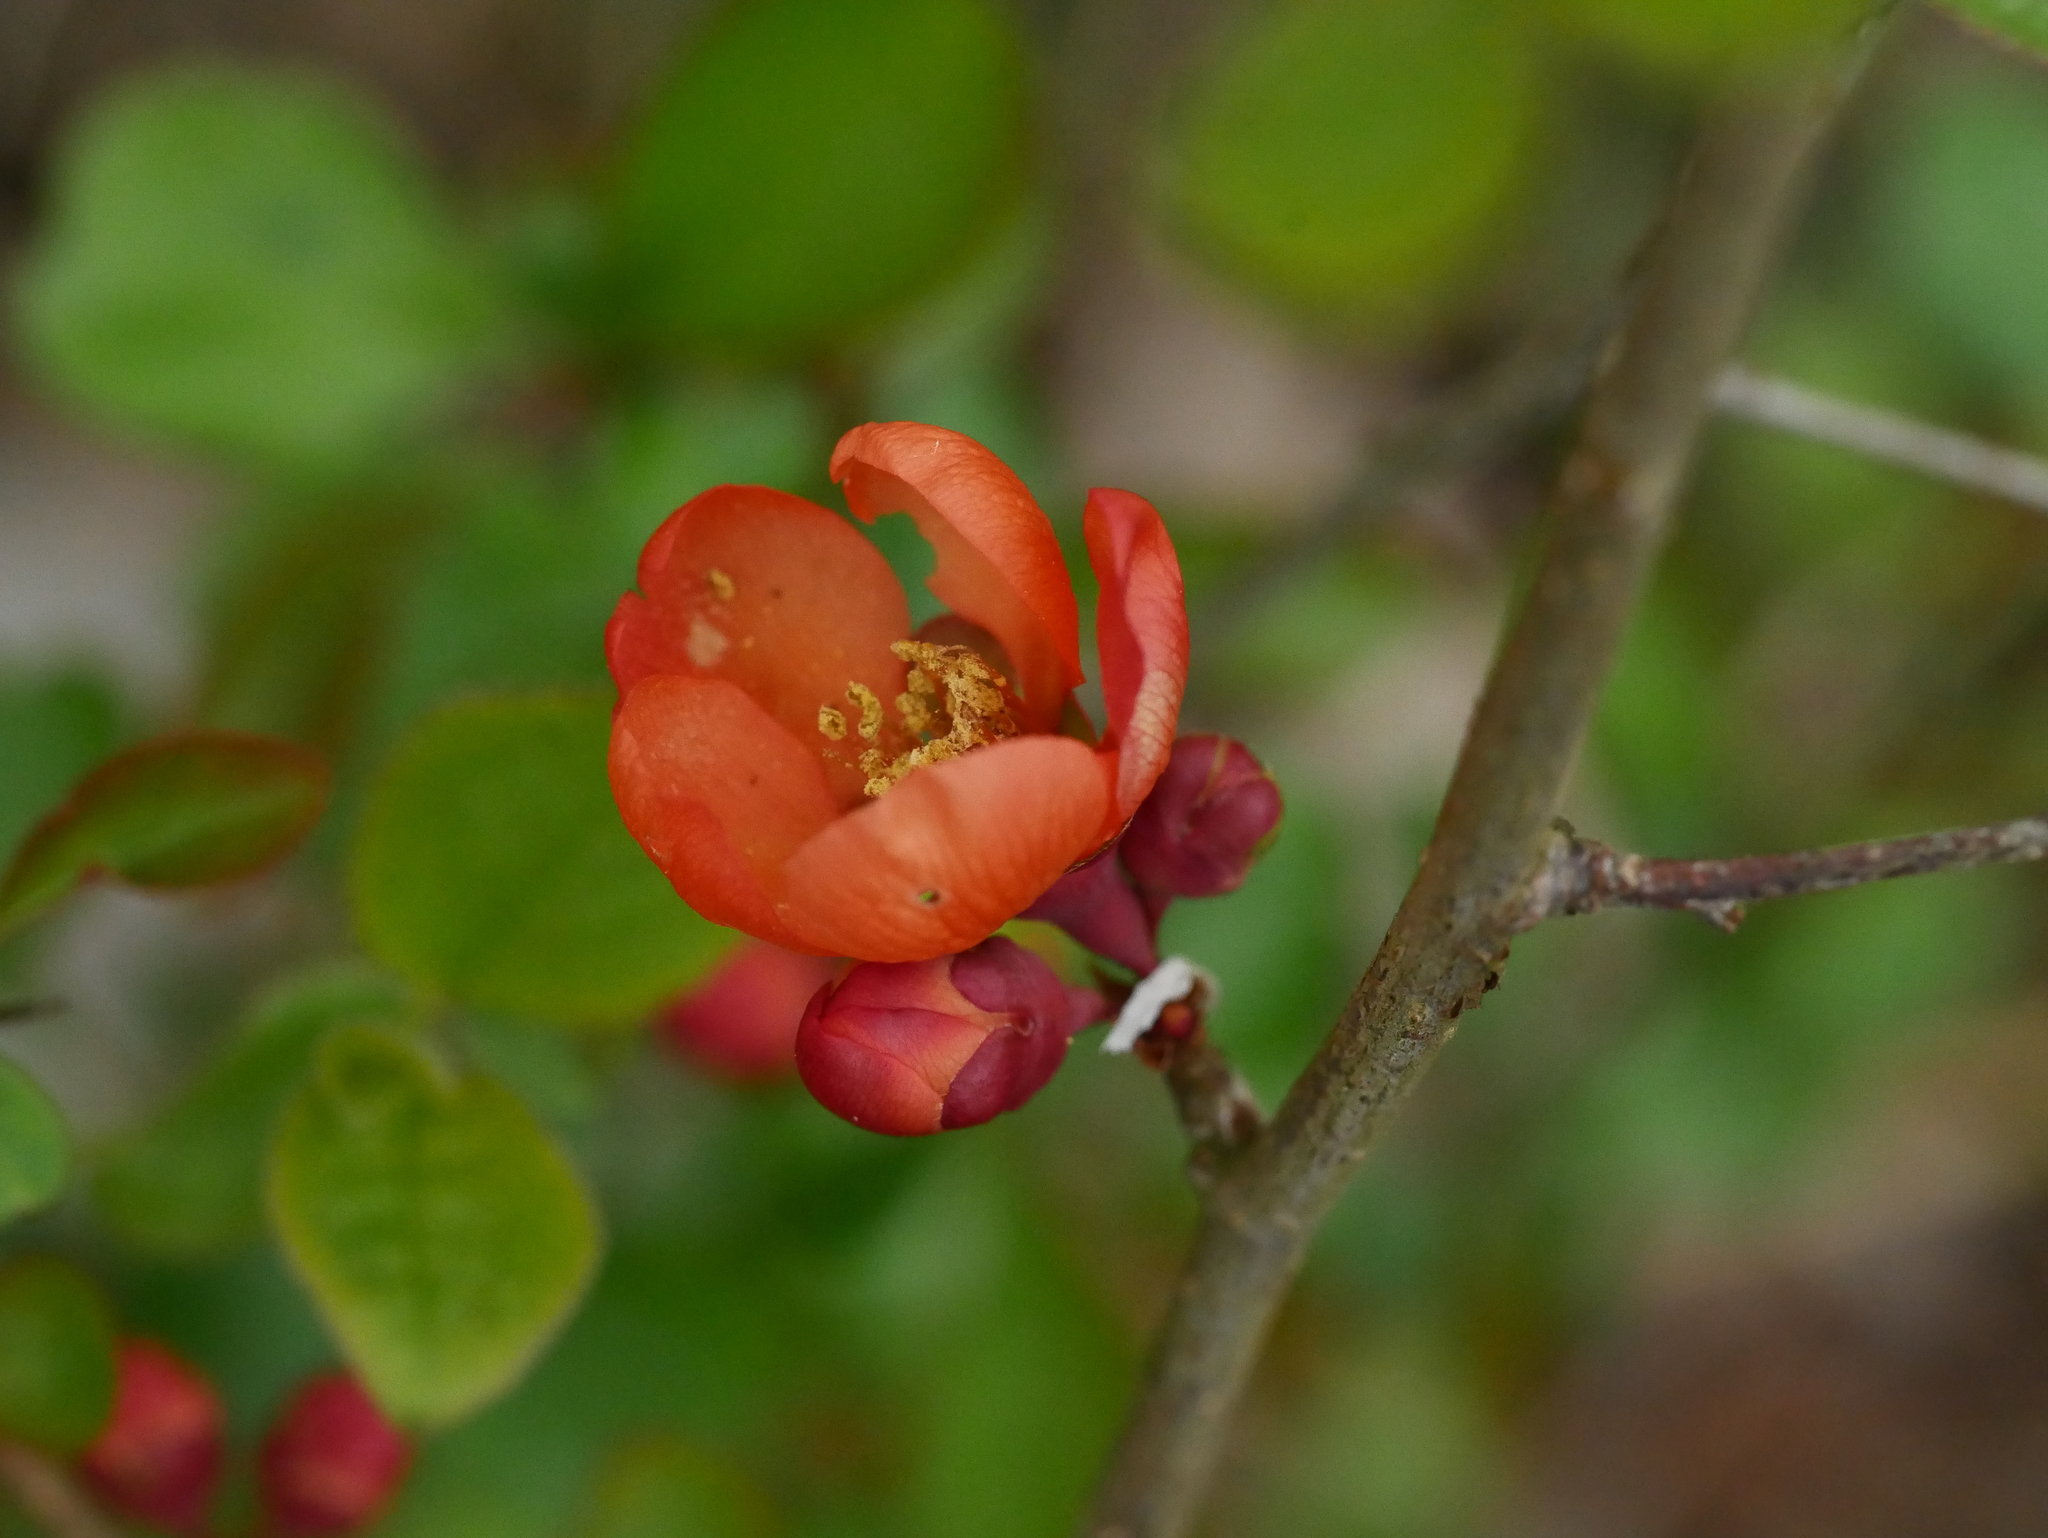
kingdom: Plantae
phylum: Tracheophyta
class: Magnoliopsida
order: Rosales
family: Rosaceae
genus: Chaenomeles
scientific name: Chaenomeles japonica
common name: Japanese quince
